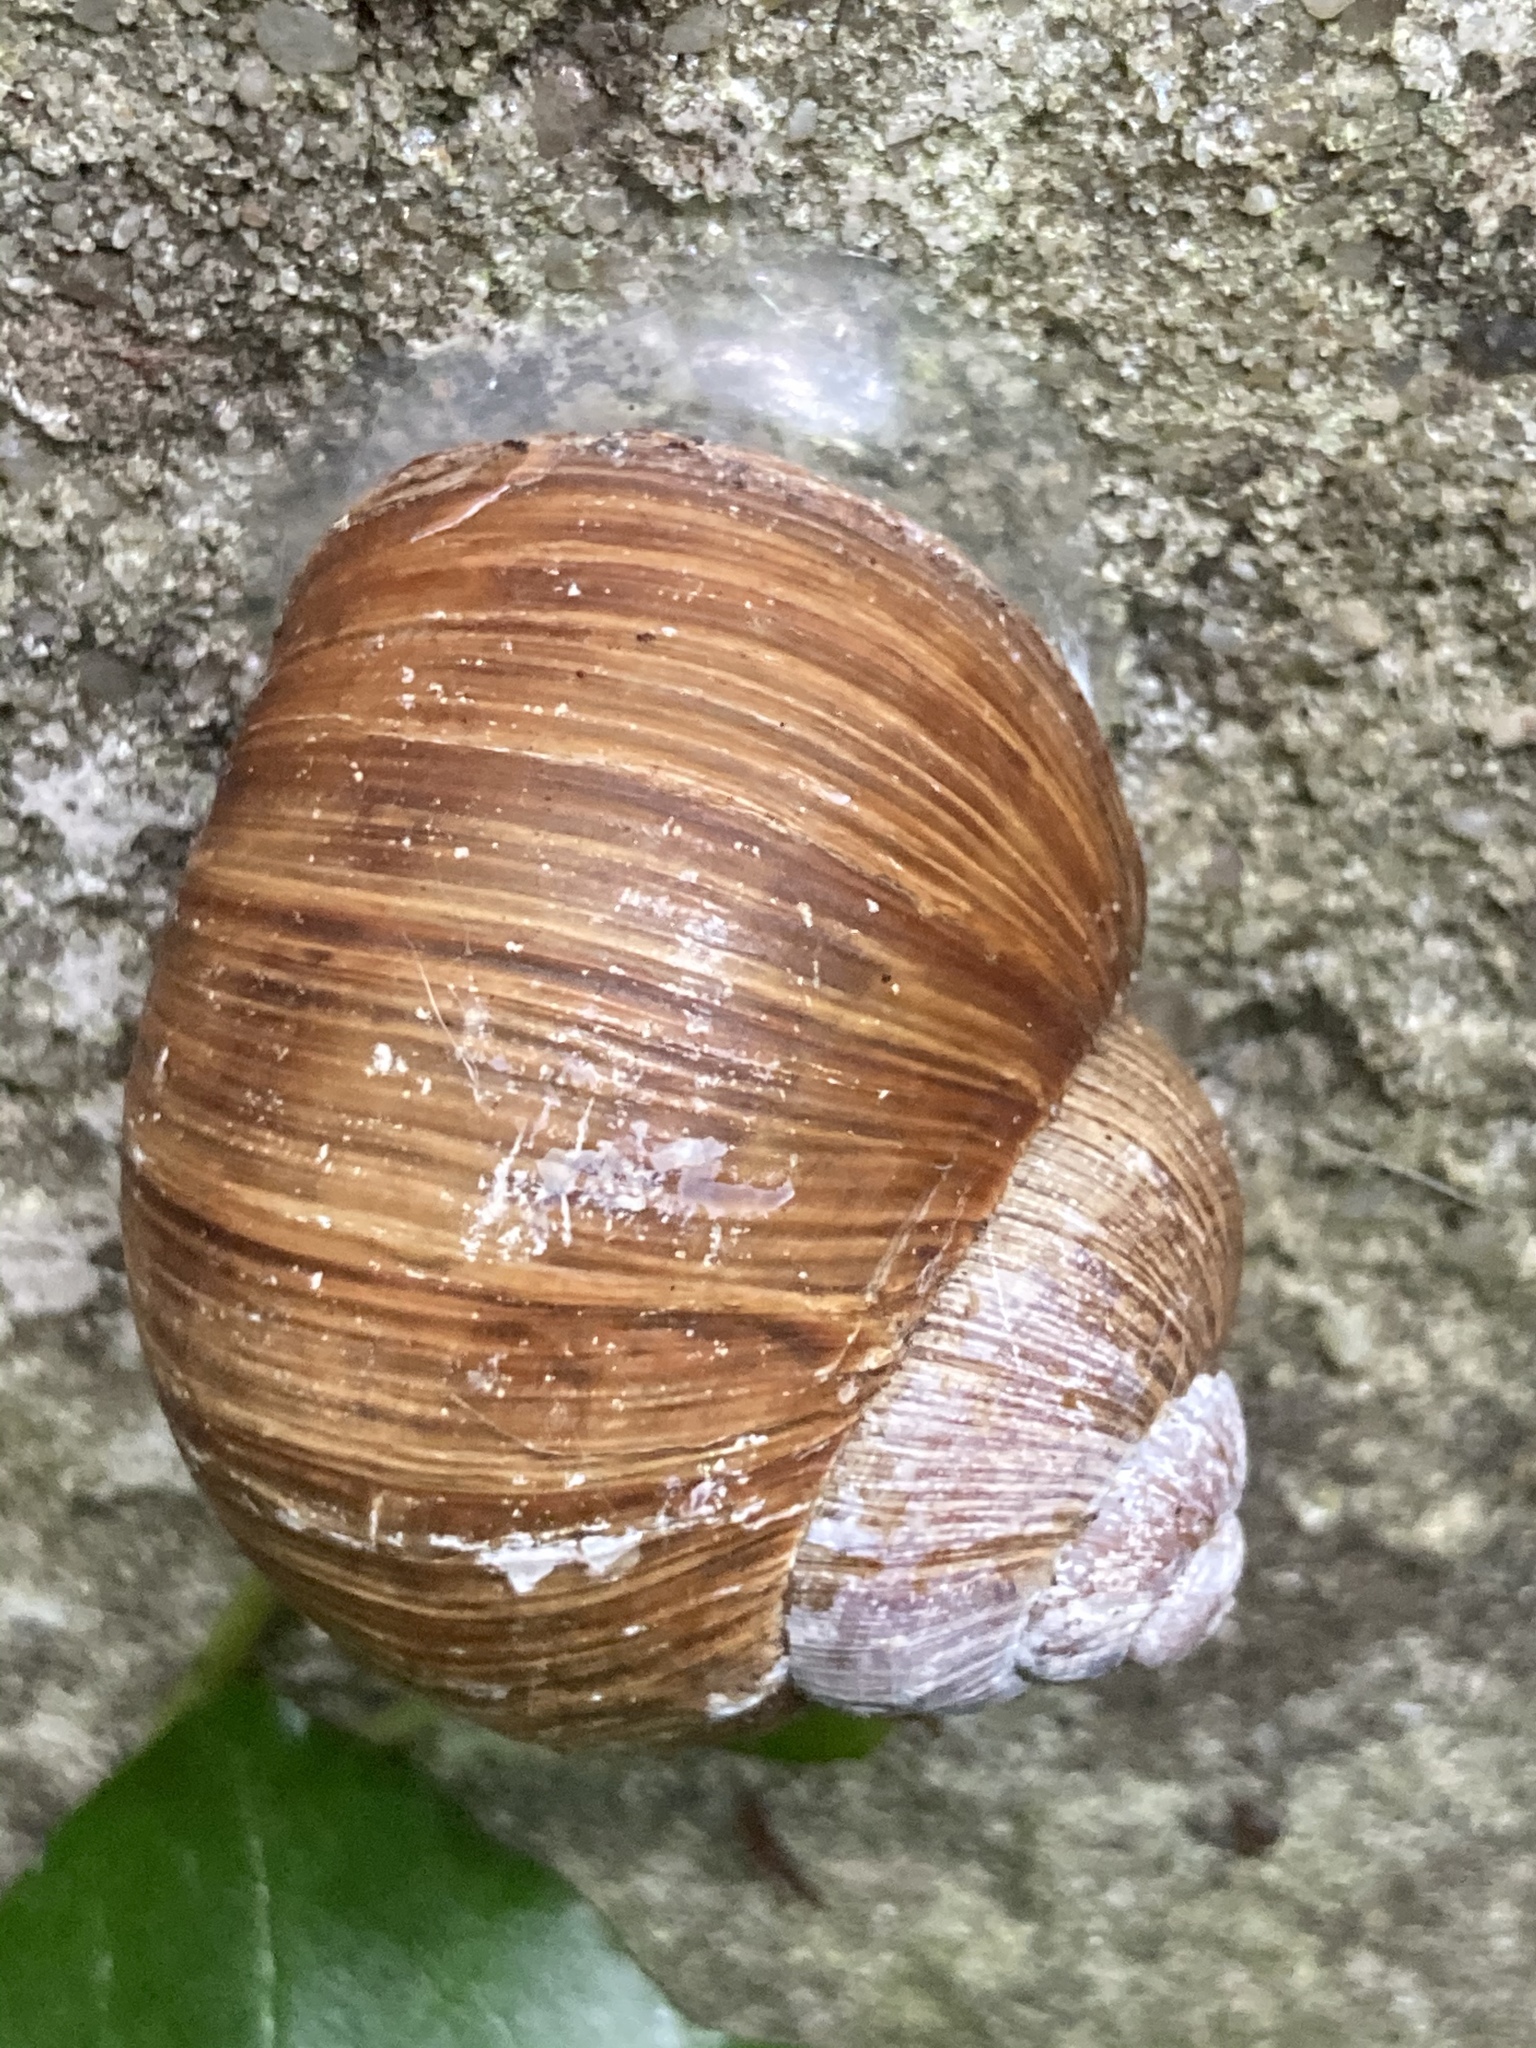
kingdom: Animalia
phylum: Mollusca
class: Gastropoda
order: Stylommatophora
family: Helicidae
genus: Helix
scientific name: Helix pomatia
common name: Roman snail
